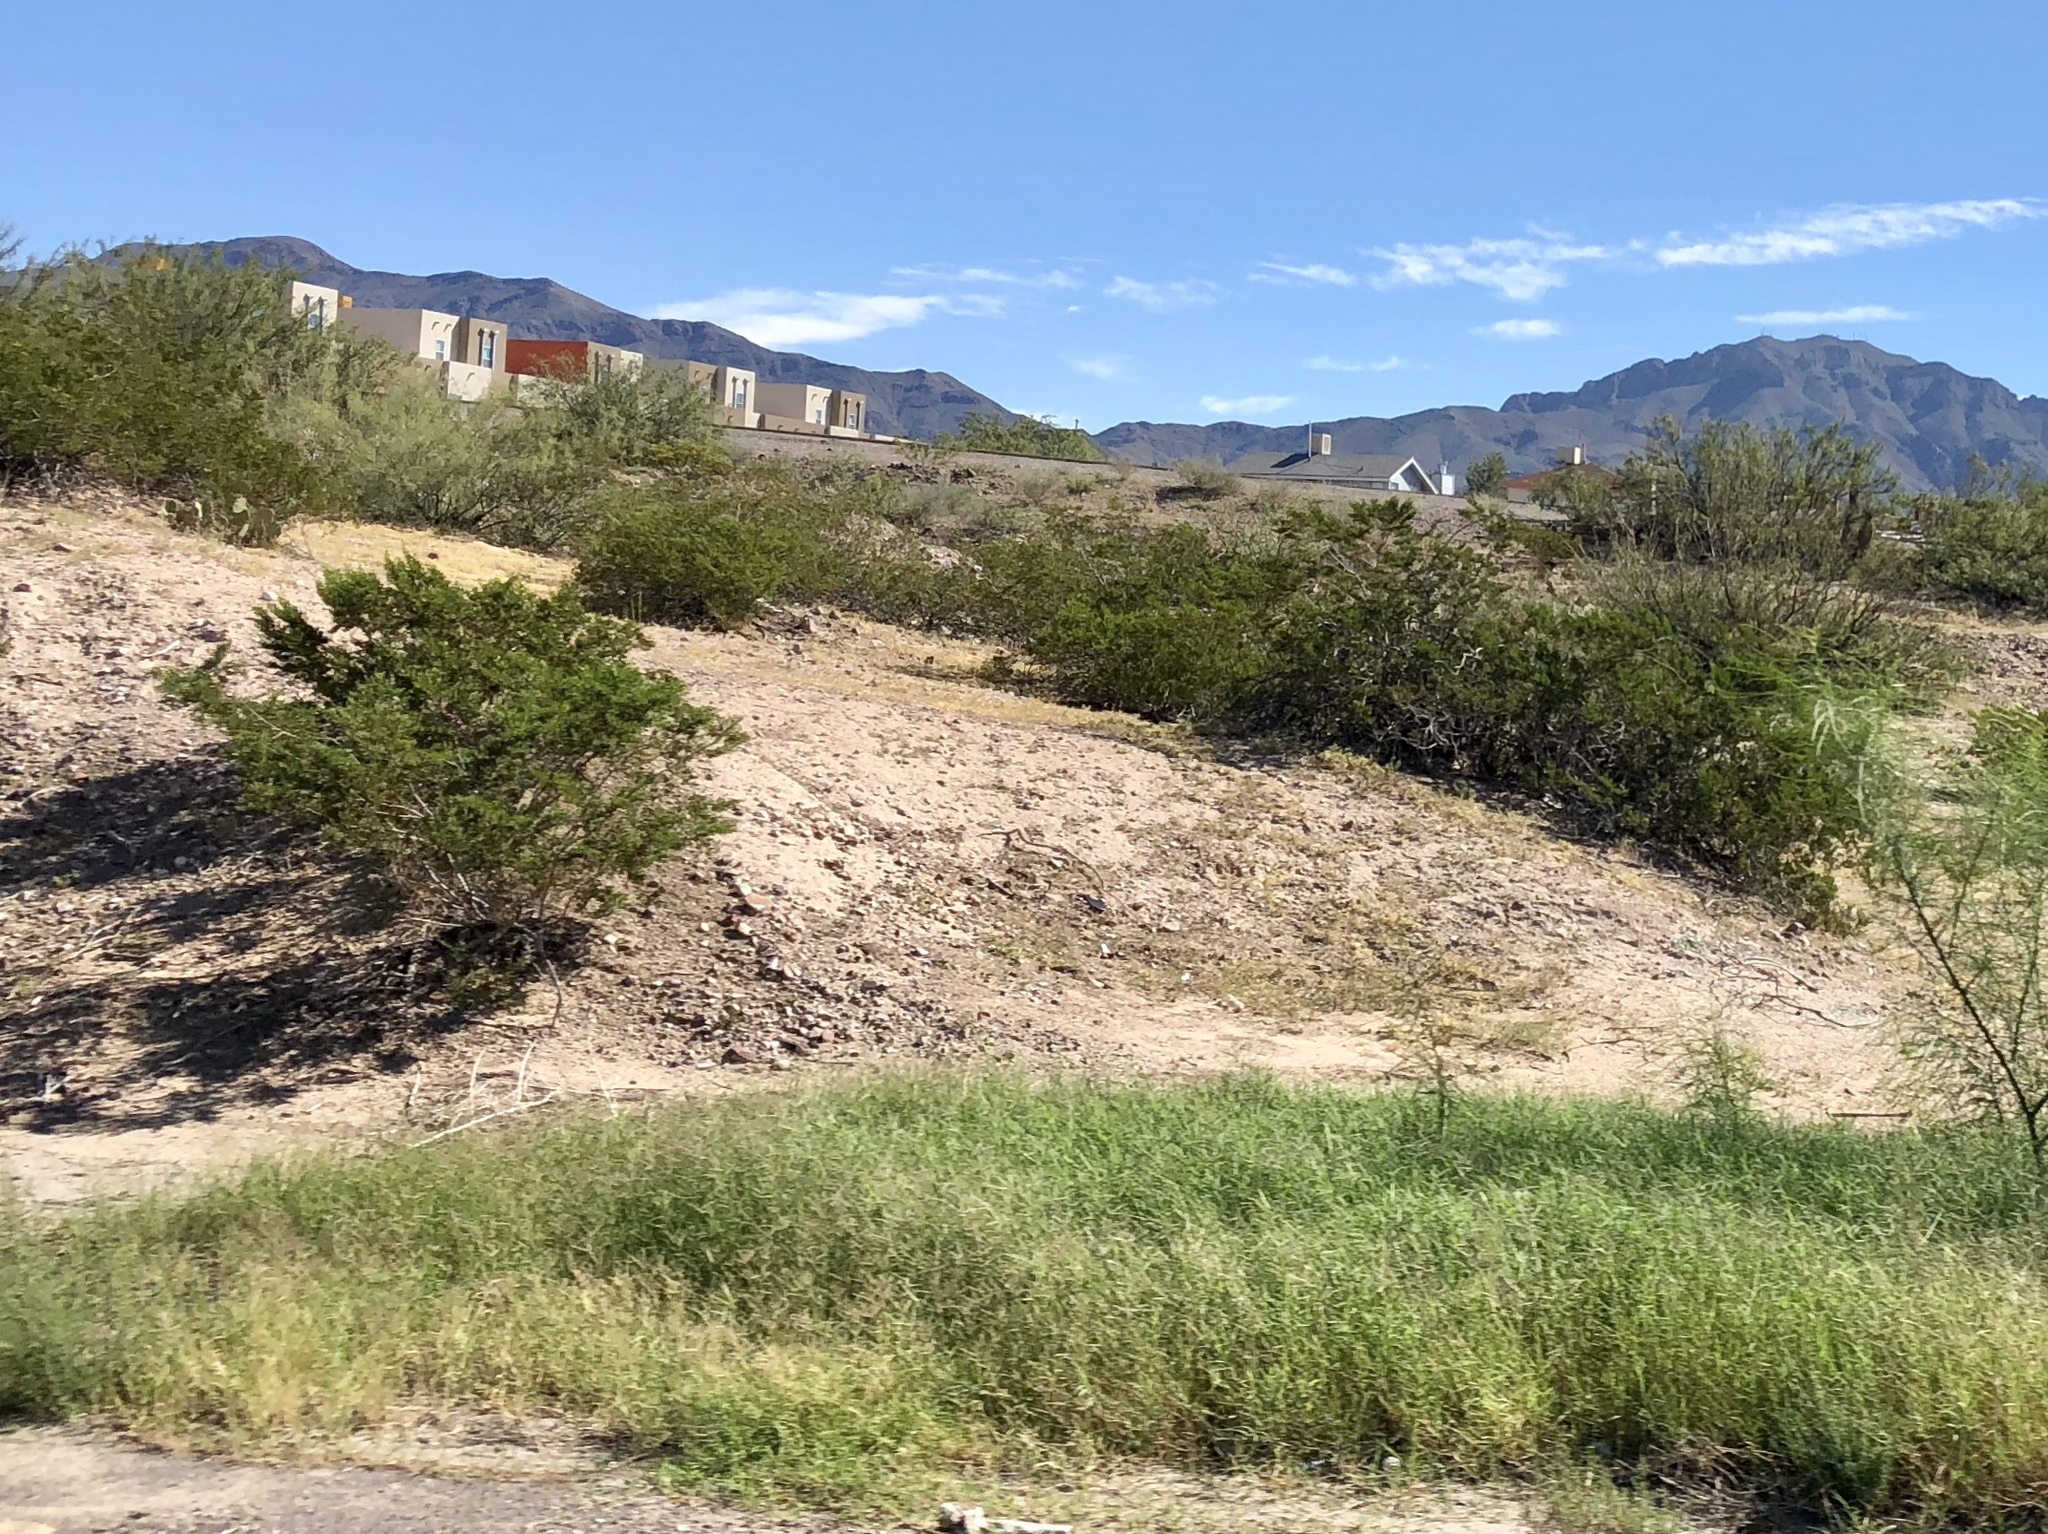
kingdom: Plantae
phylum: Tracheophyta
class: Magnoliopsida
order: Zygophyllales
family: Zygophyllaceae
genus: Larrea
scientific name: Larrea tridentata
